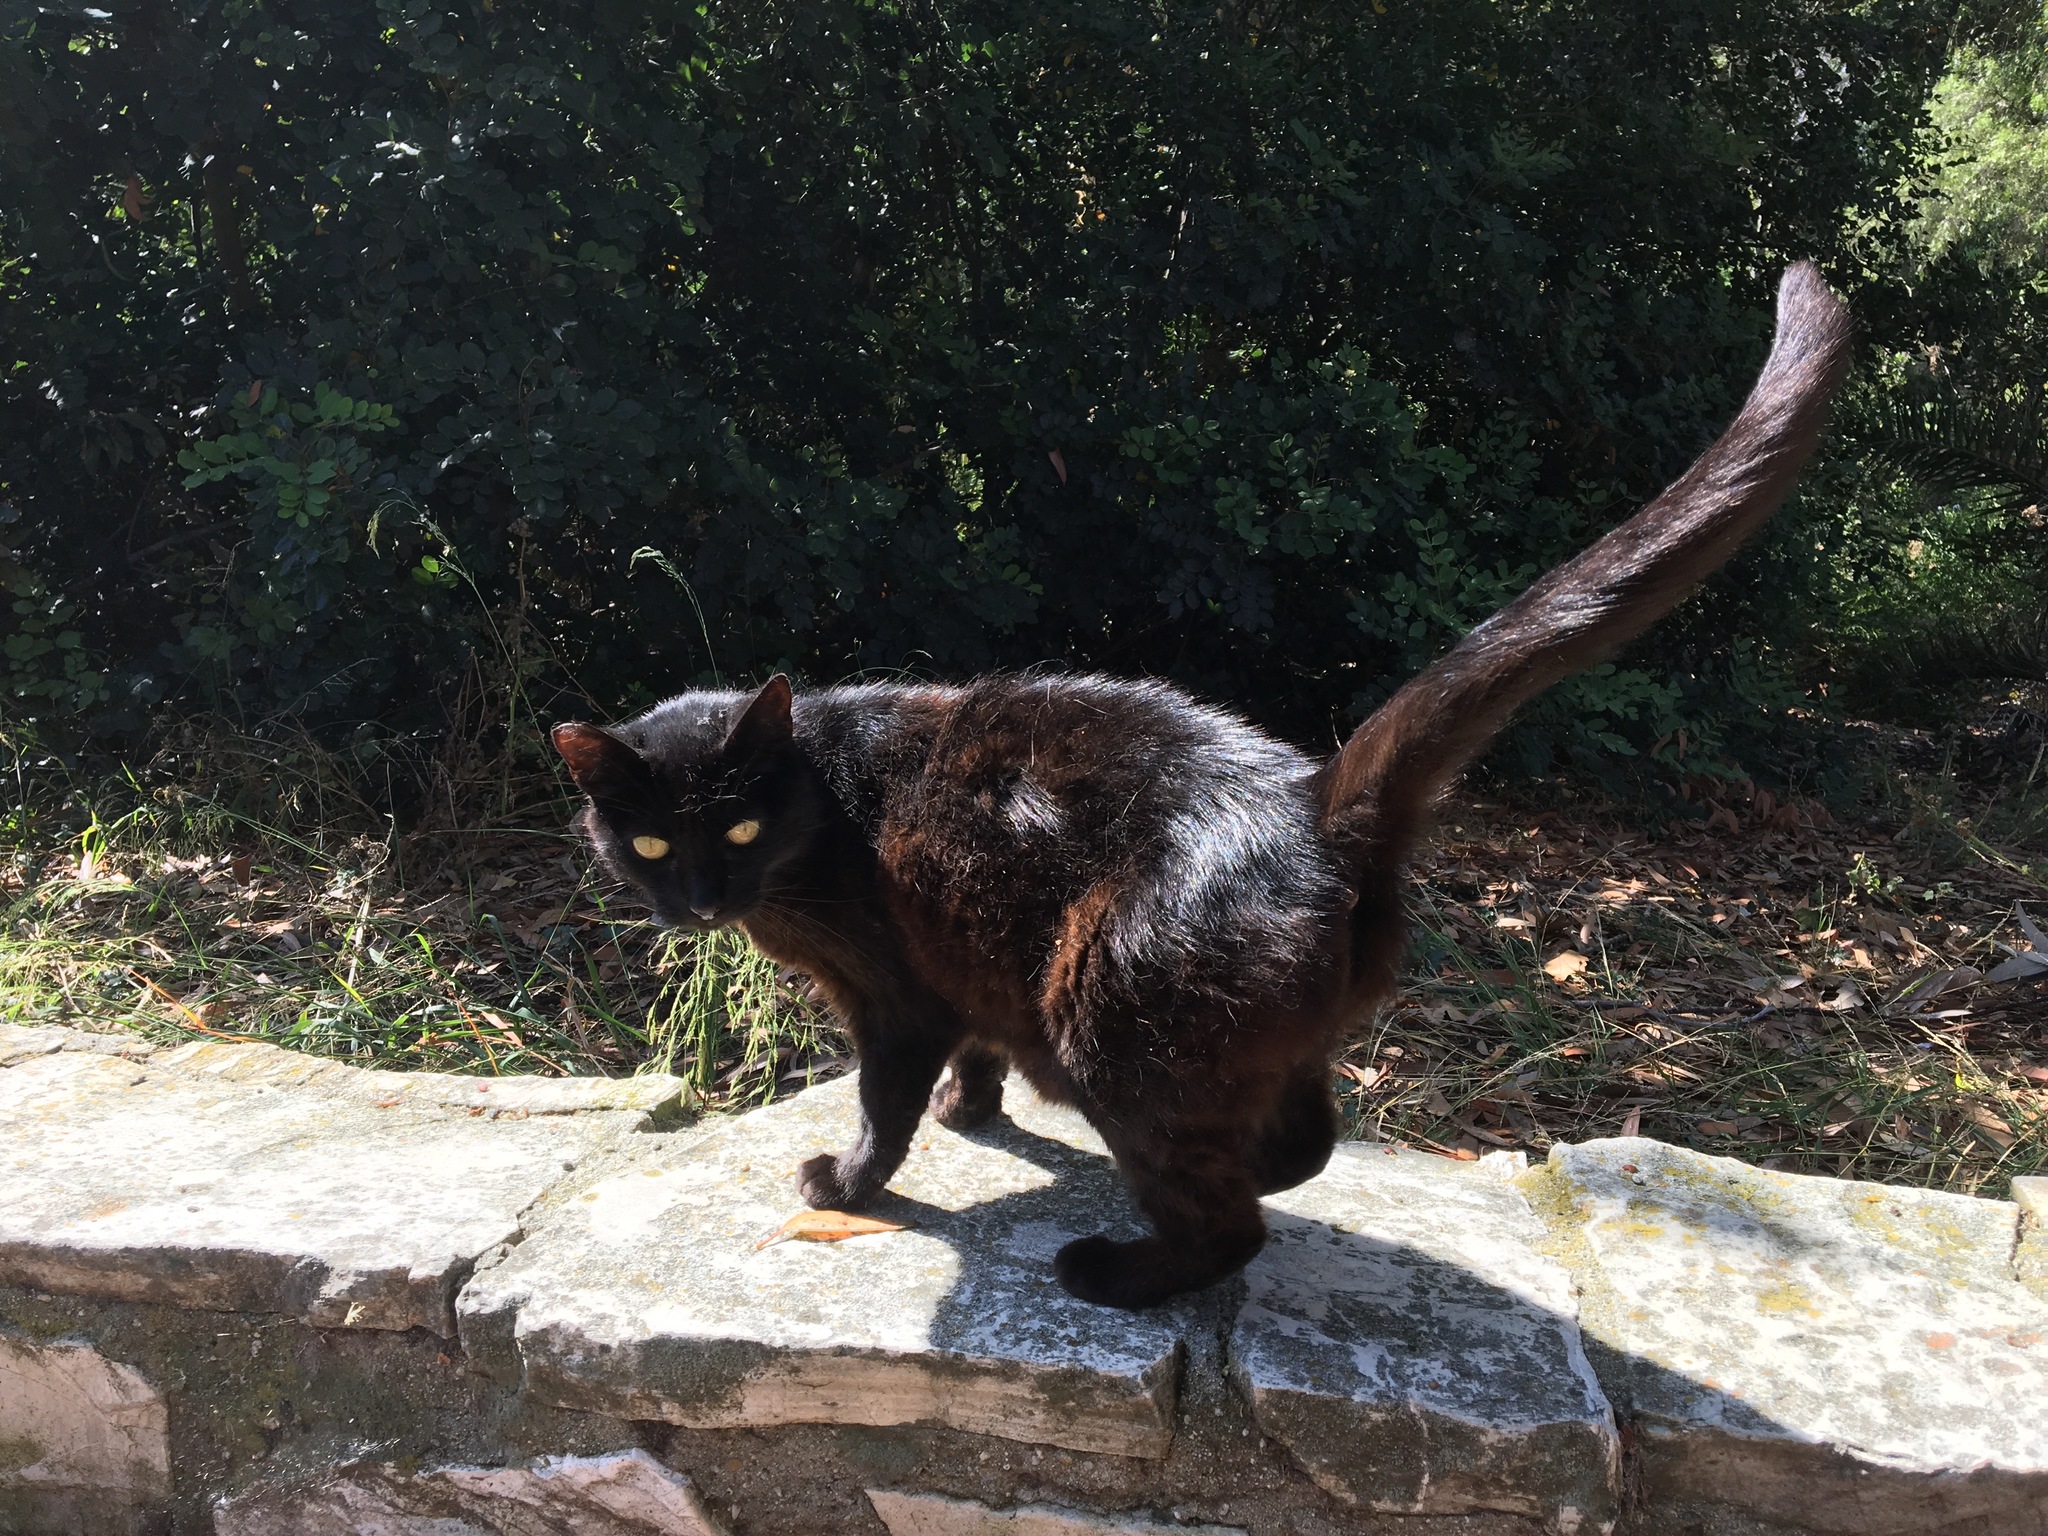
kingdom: Animalia
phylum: Chordata
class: Mammalia
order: Carnivora
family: Felidae
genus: Felis
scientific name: Felis catus
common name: Domestic cat
